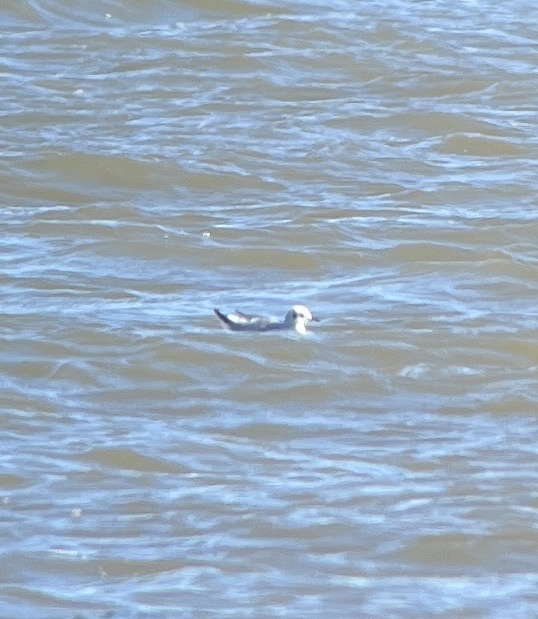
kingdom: Animalia
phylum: Chordata
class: Aves
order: Charadriiformes
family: Laridae
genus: Chroicocephalus
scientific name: Chroicocephalus philadelphia
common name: Bonaparte's gull
